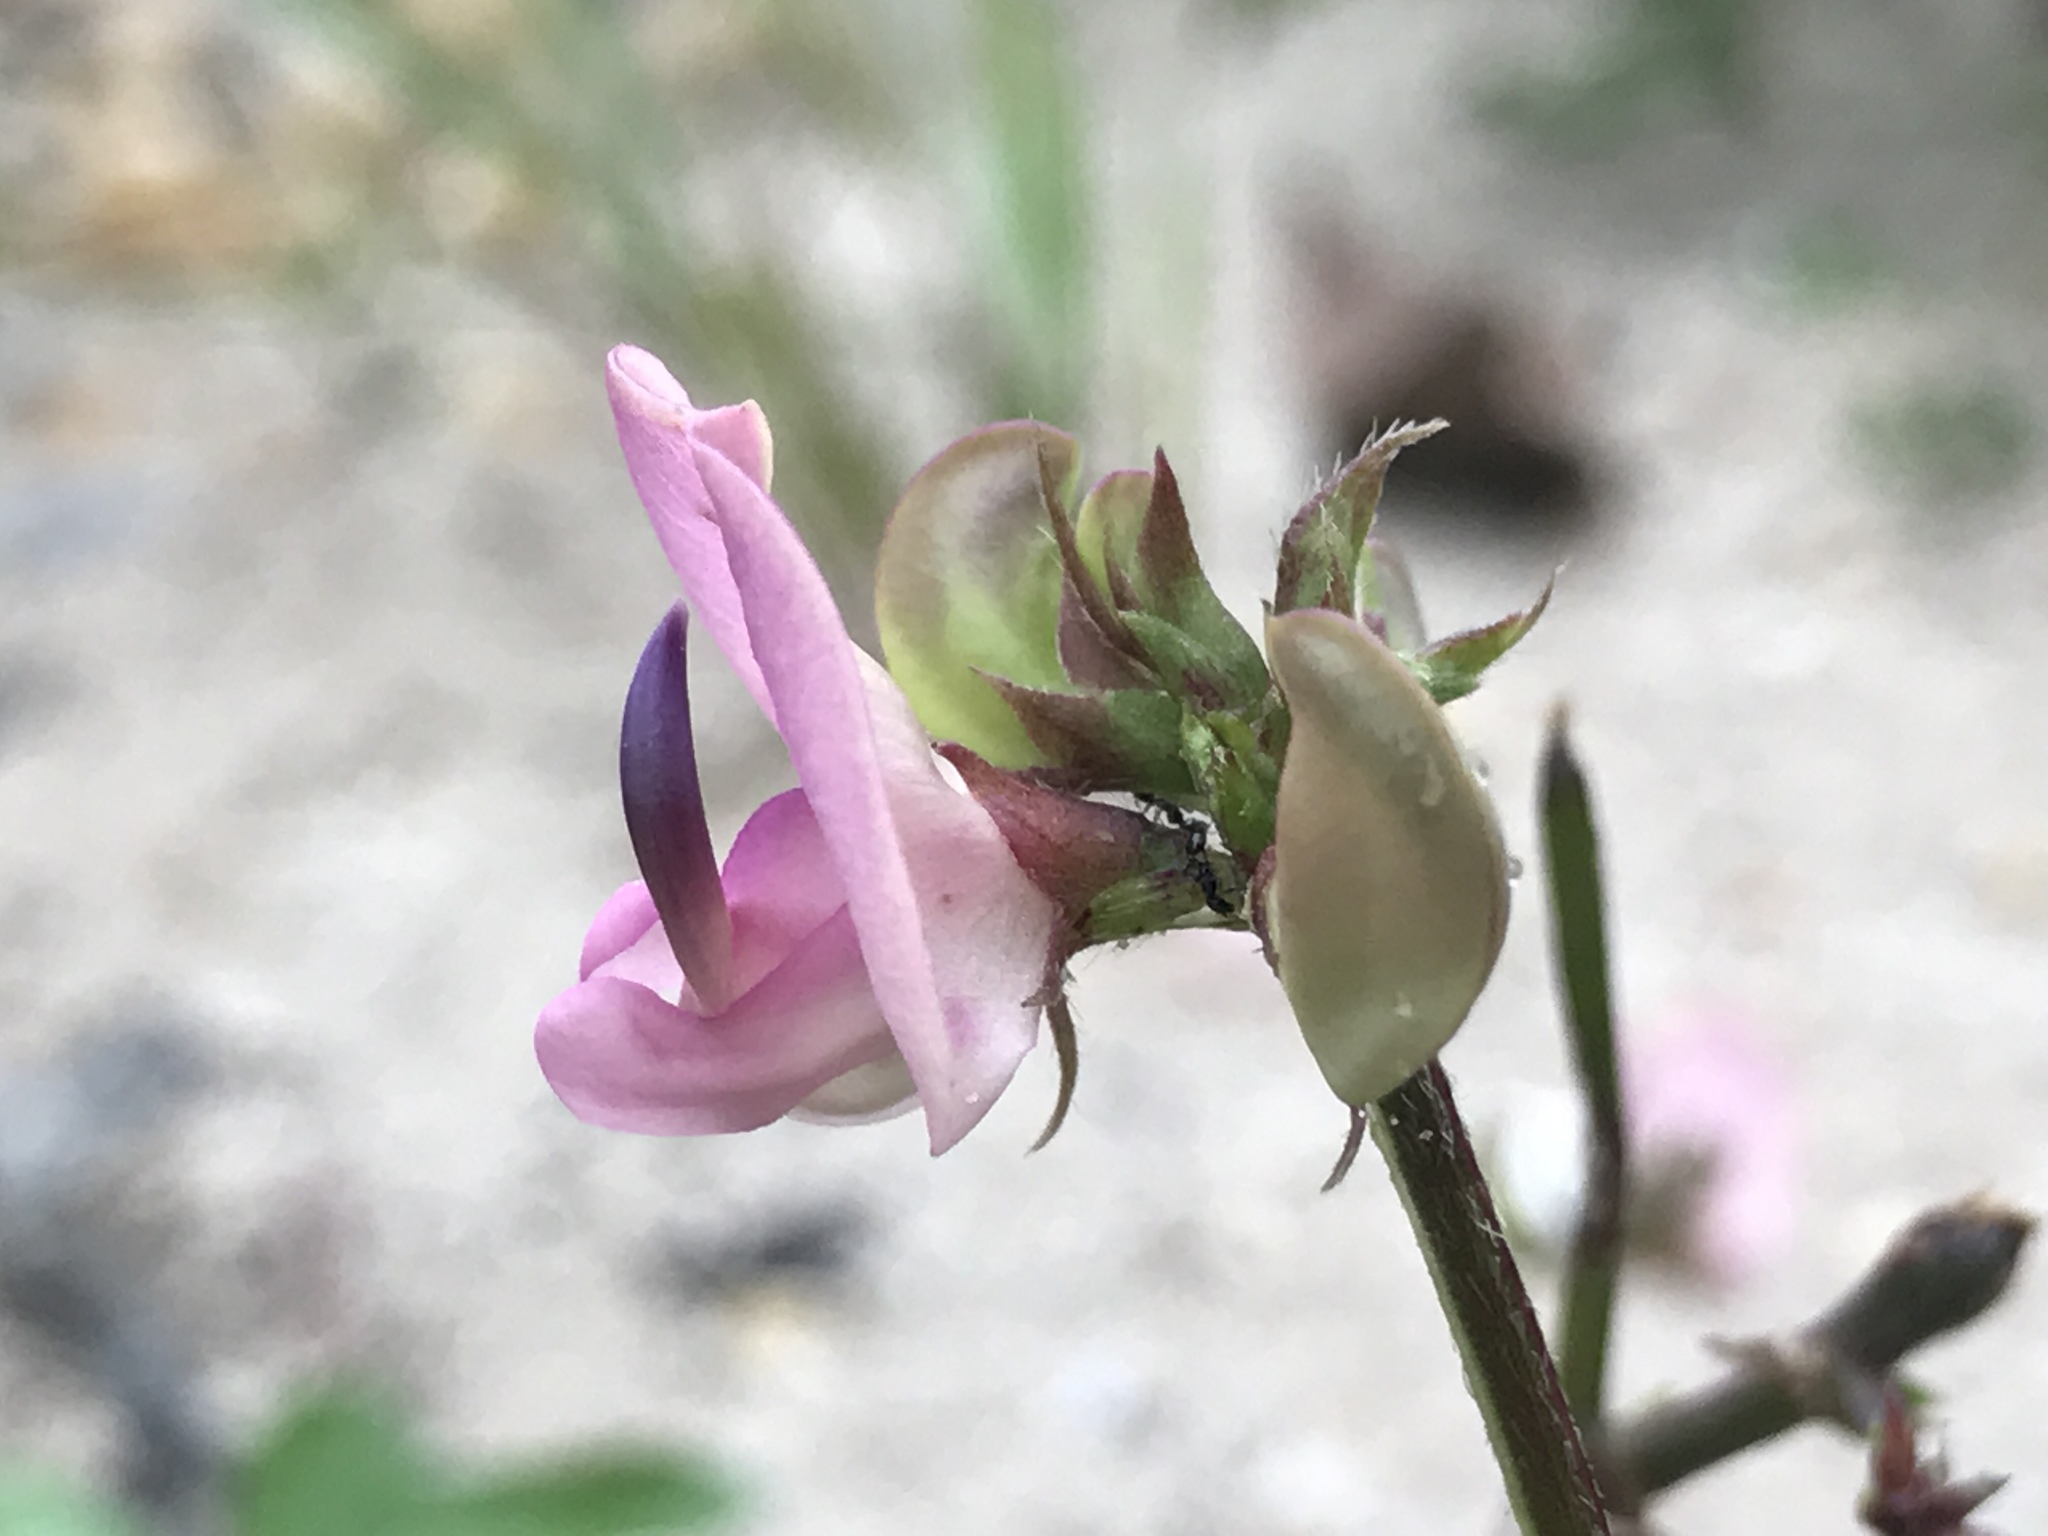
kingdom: Plantae
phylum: Tracheophyta
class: Magnoliopsida
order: Fabales
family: Fabaceae
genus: Strophostyles
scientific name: Strophostyles helvola
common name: Trailing wild bean
